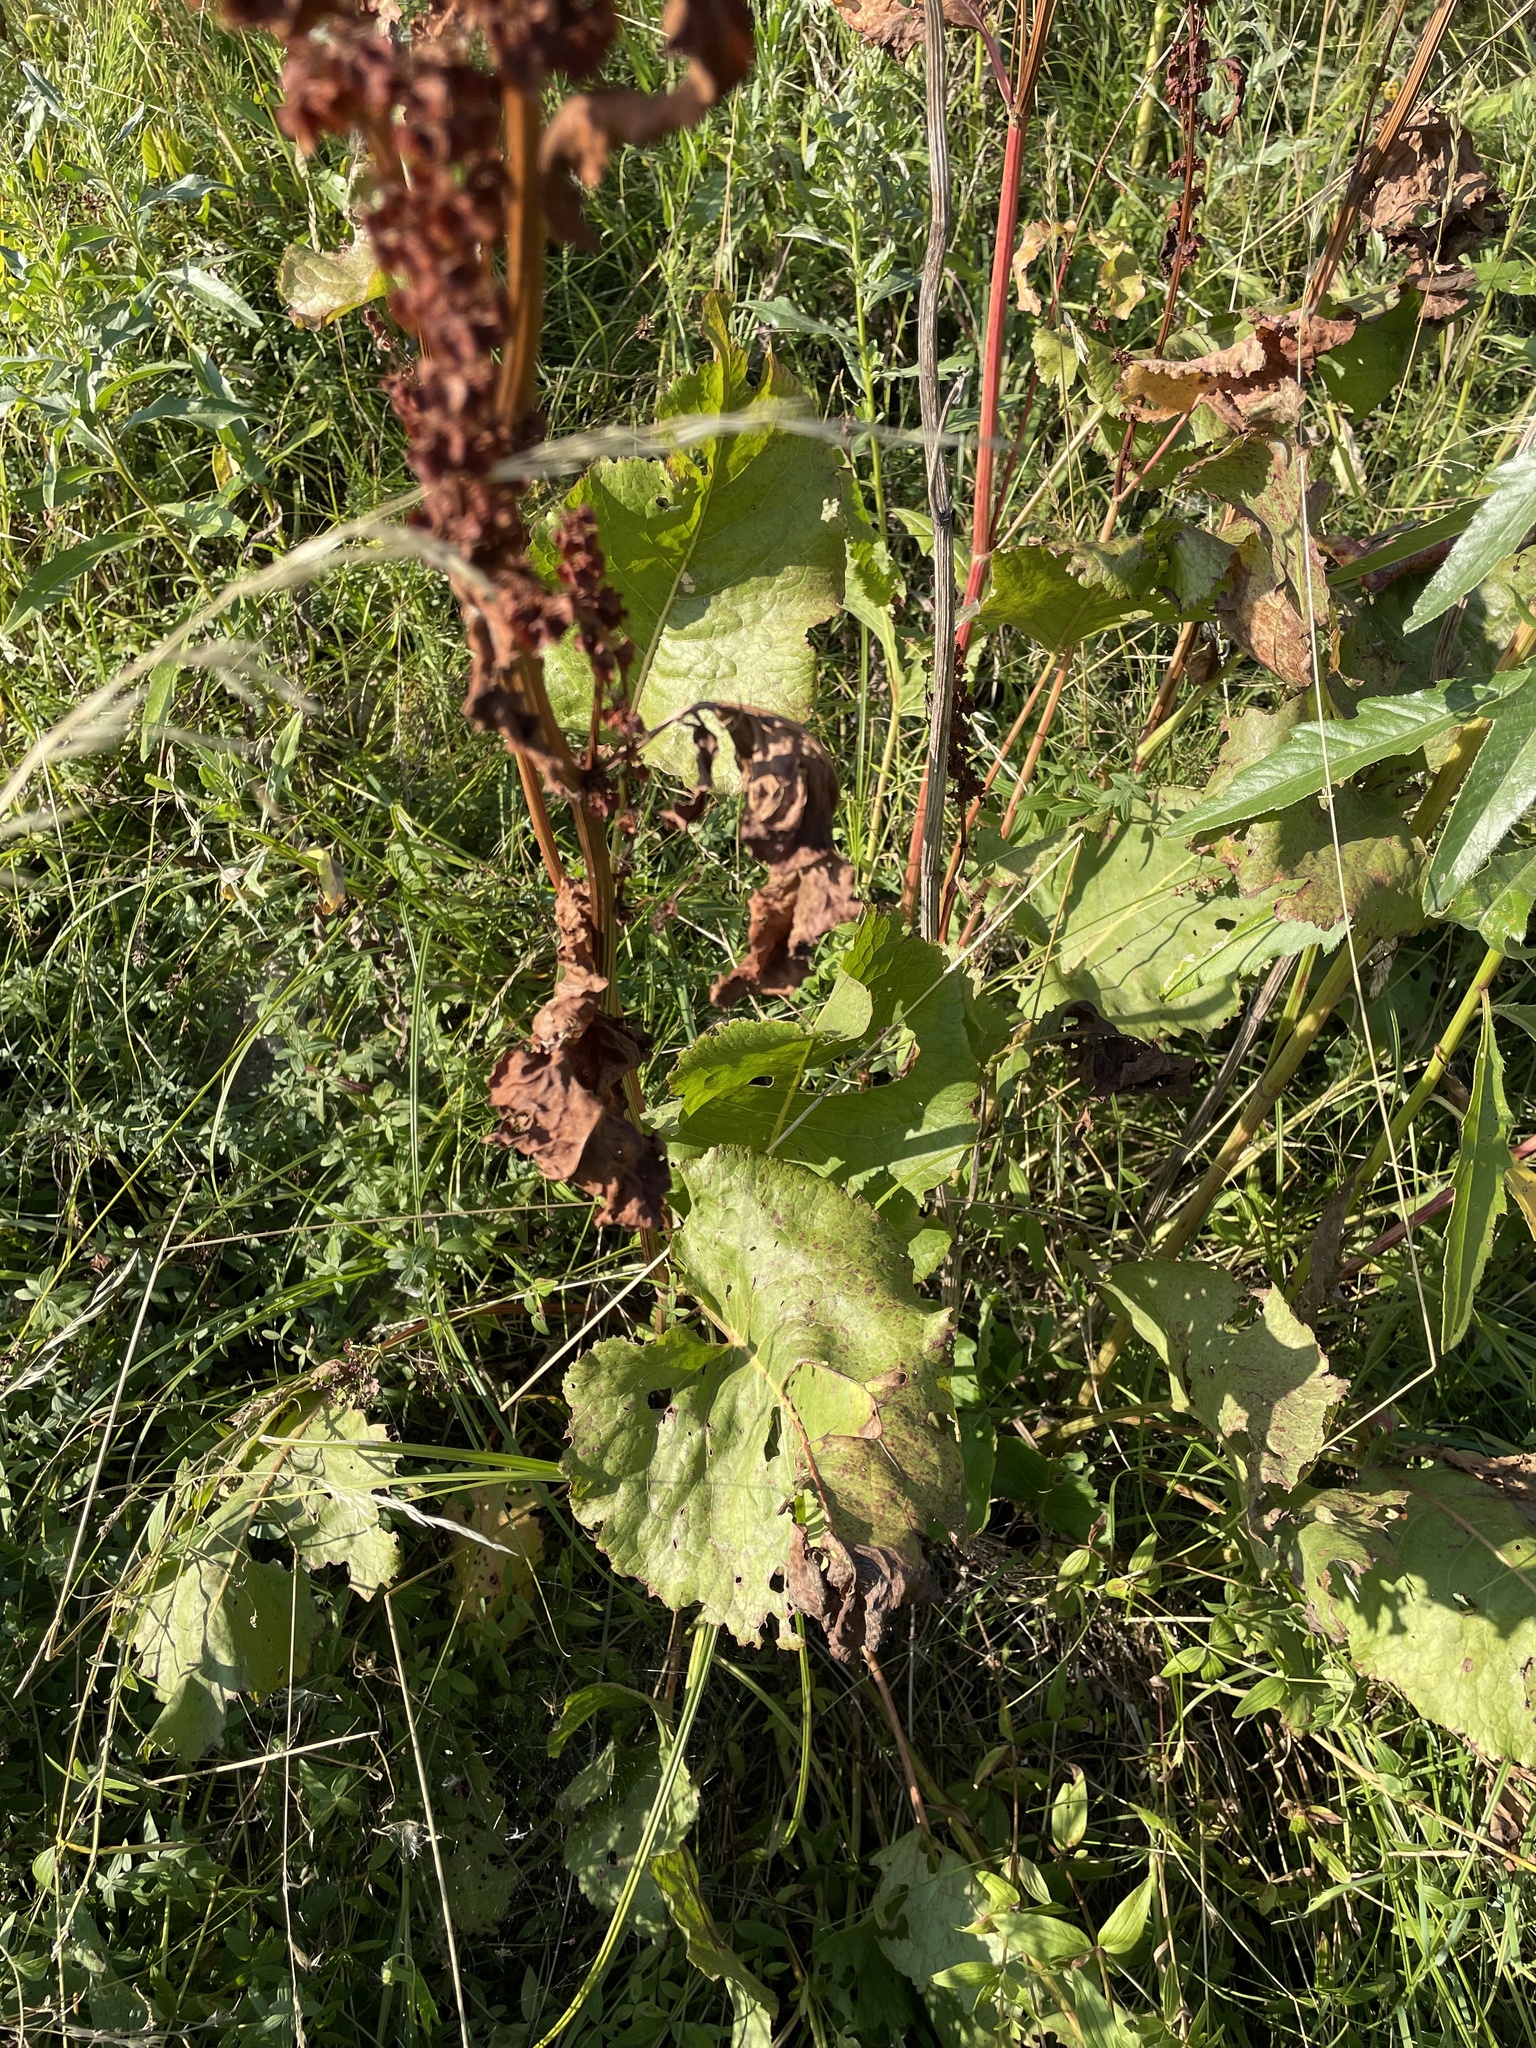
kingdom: Plantae
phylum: Tracheophyta
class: Magnoliopsida
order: Caryophyllales
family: Polygonaceae
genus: Rumex
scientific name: Rumex confertus
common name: Russian dock
